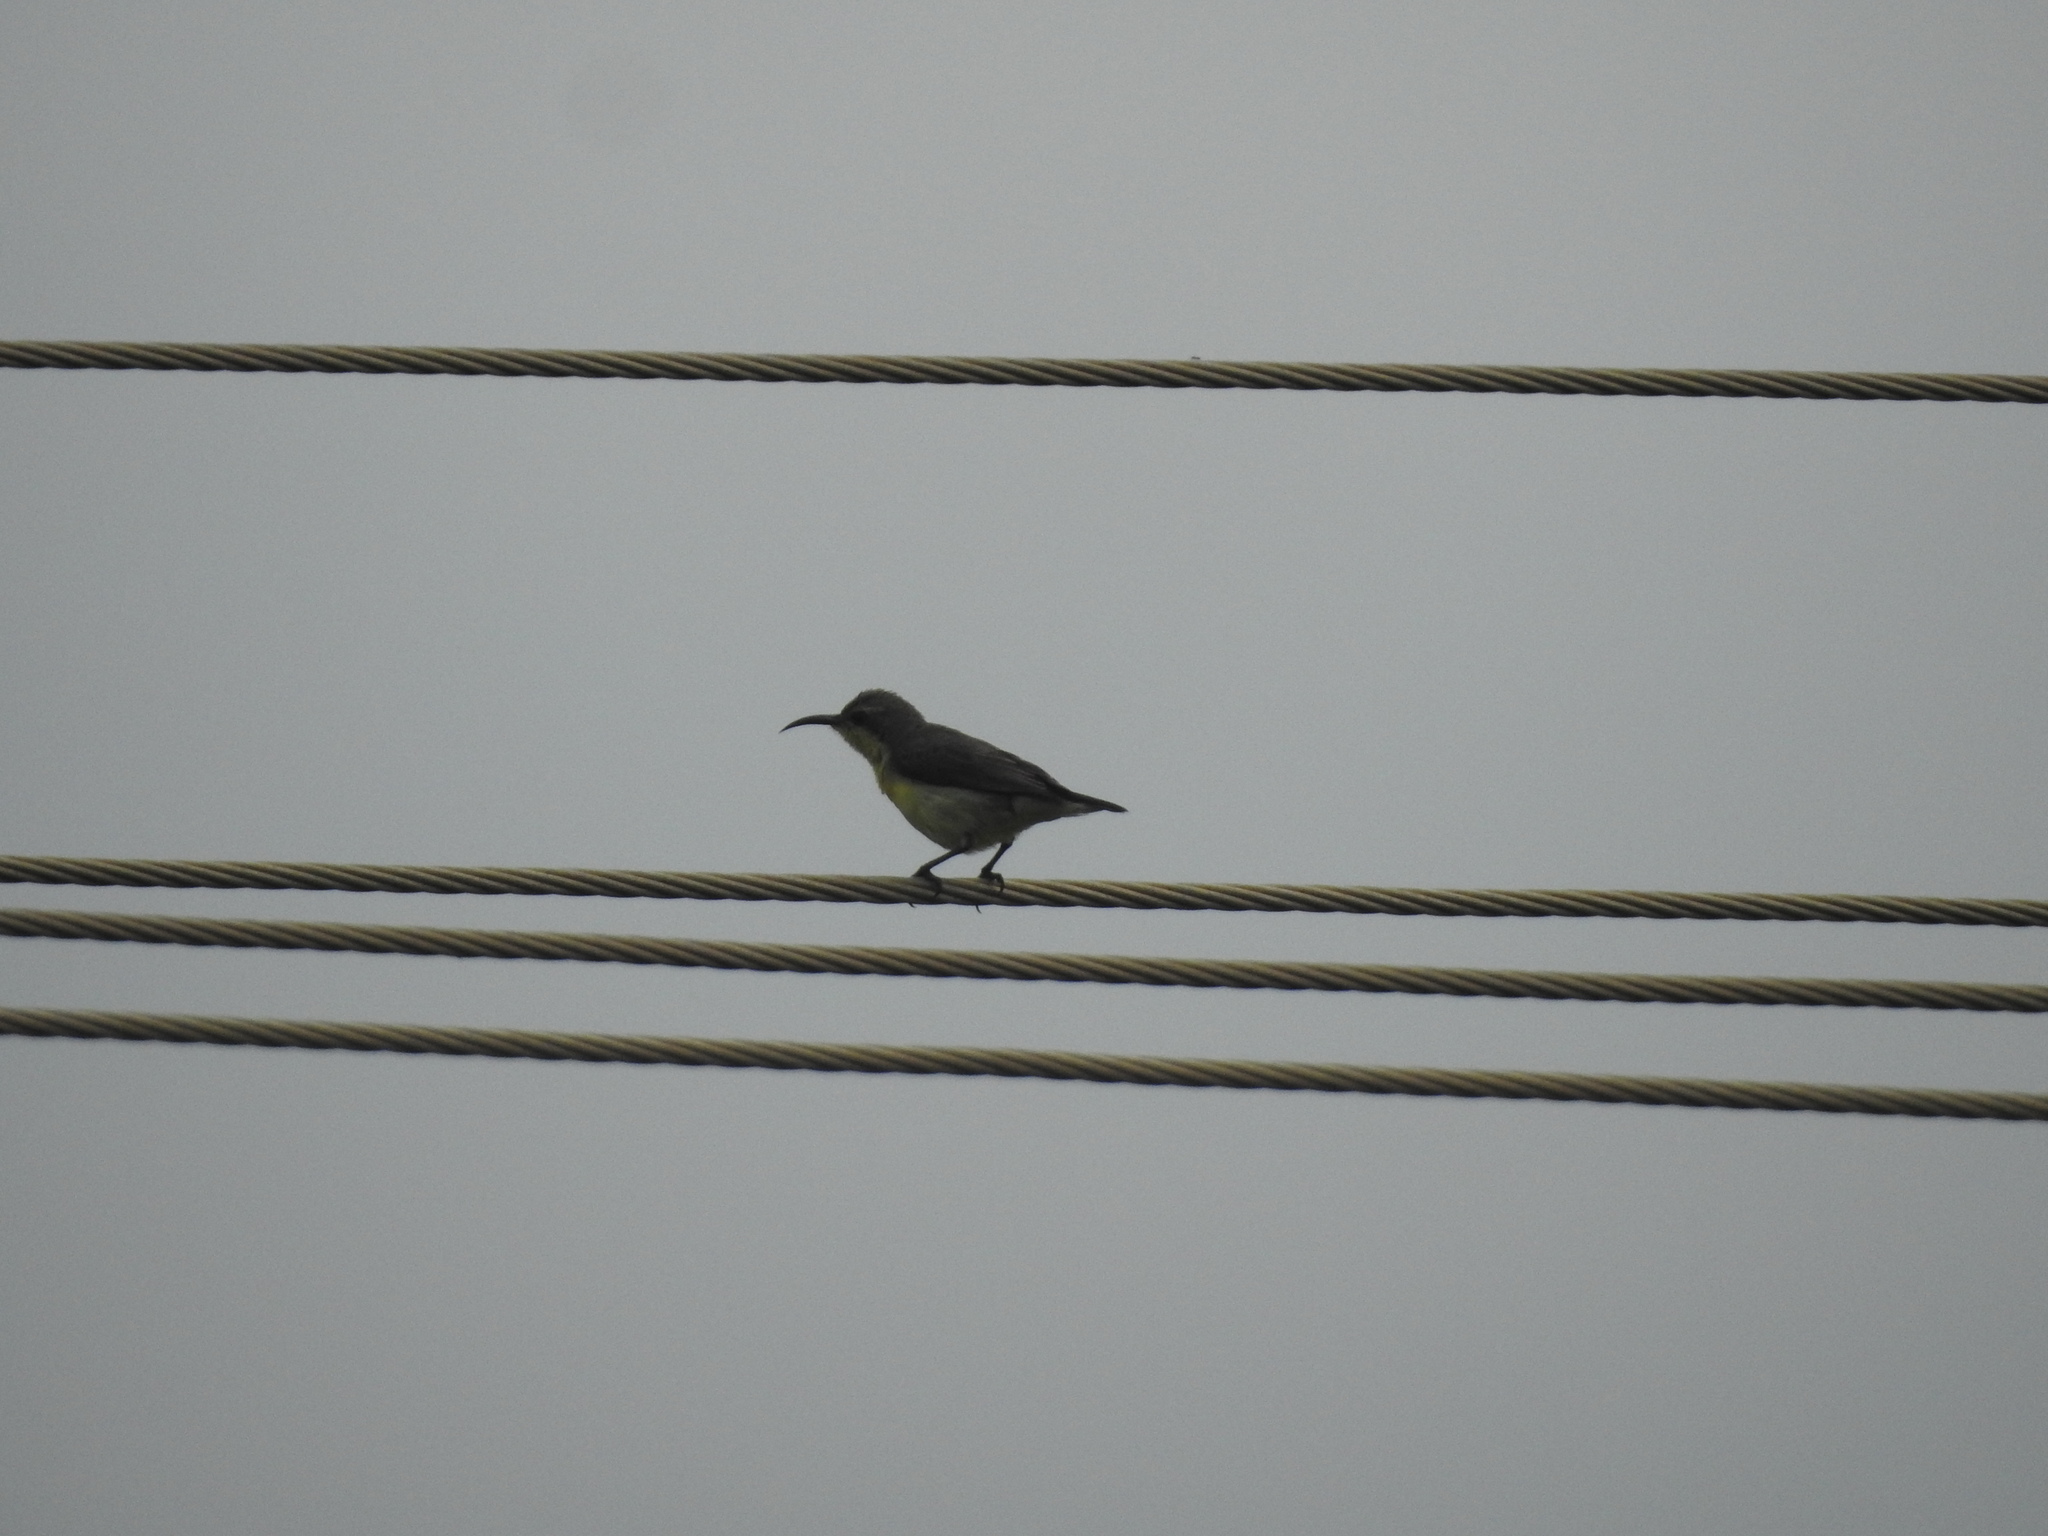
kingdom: Animalia
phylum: Chordata
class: Aves
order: Passeriformes
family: Nectariniidae
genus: Cinnyris
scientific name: Cinnyris asiaticus
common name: Purple sunbird
